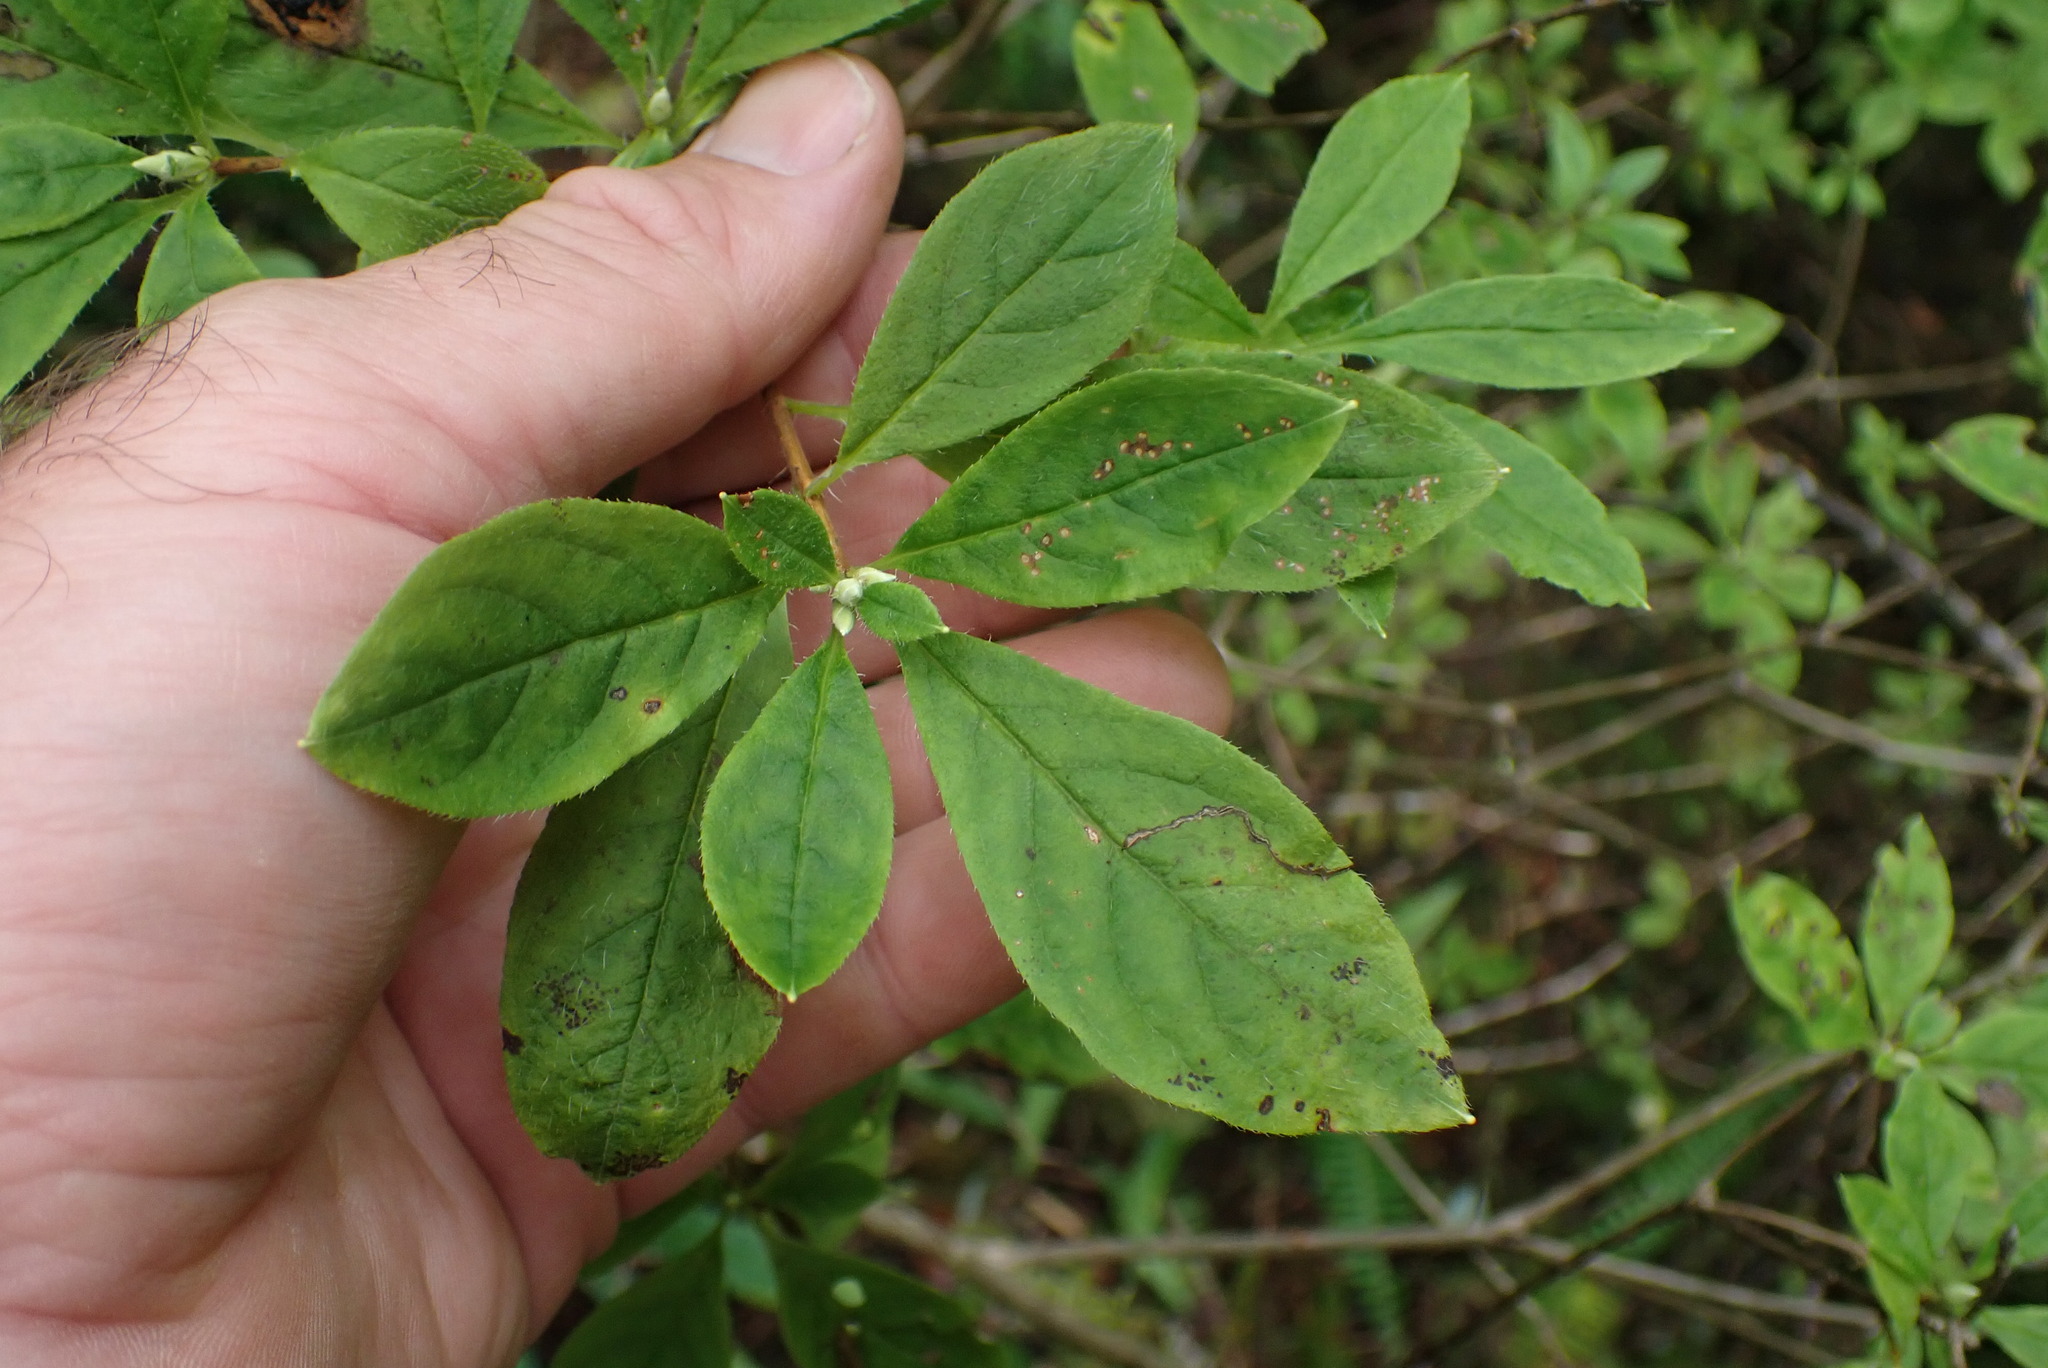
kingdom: Plantae
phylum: Tracheophyta
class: Magnoliopsida
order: Ericales
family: Ericaceae
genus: Rhododendron
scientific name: Rhododendron menziesii
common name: Pacific menziesia
